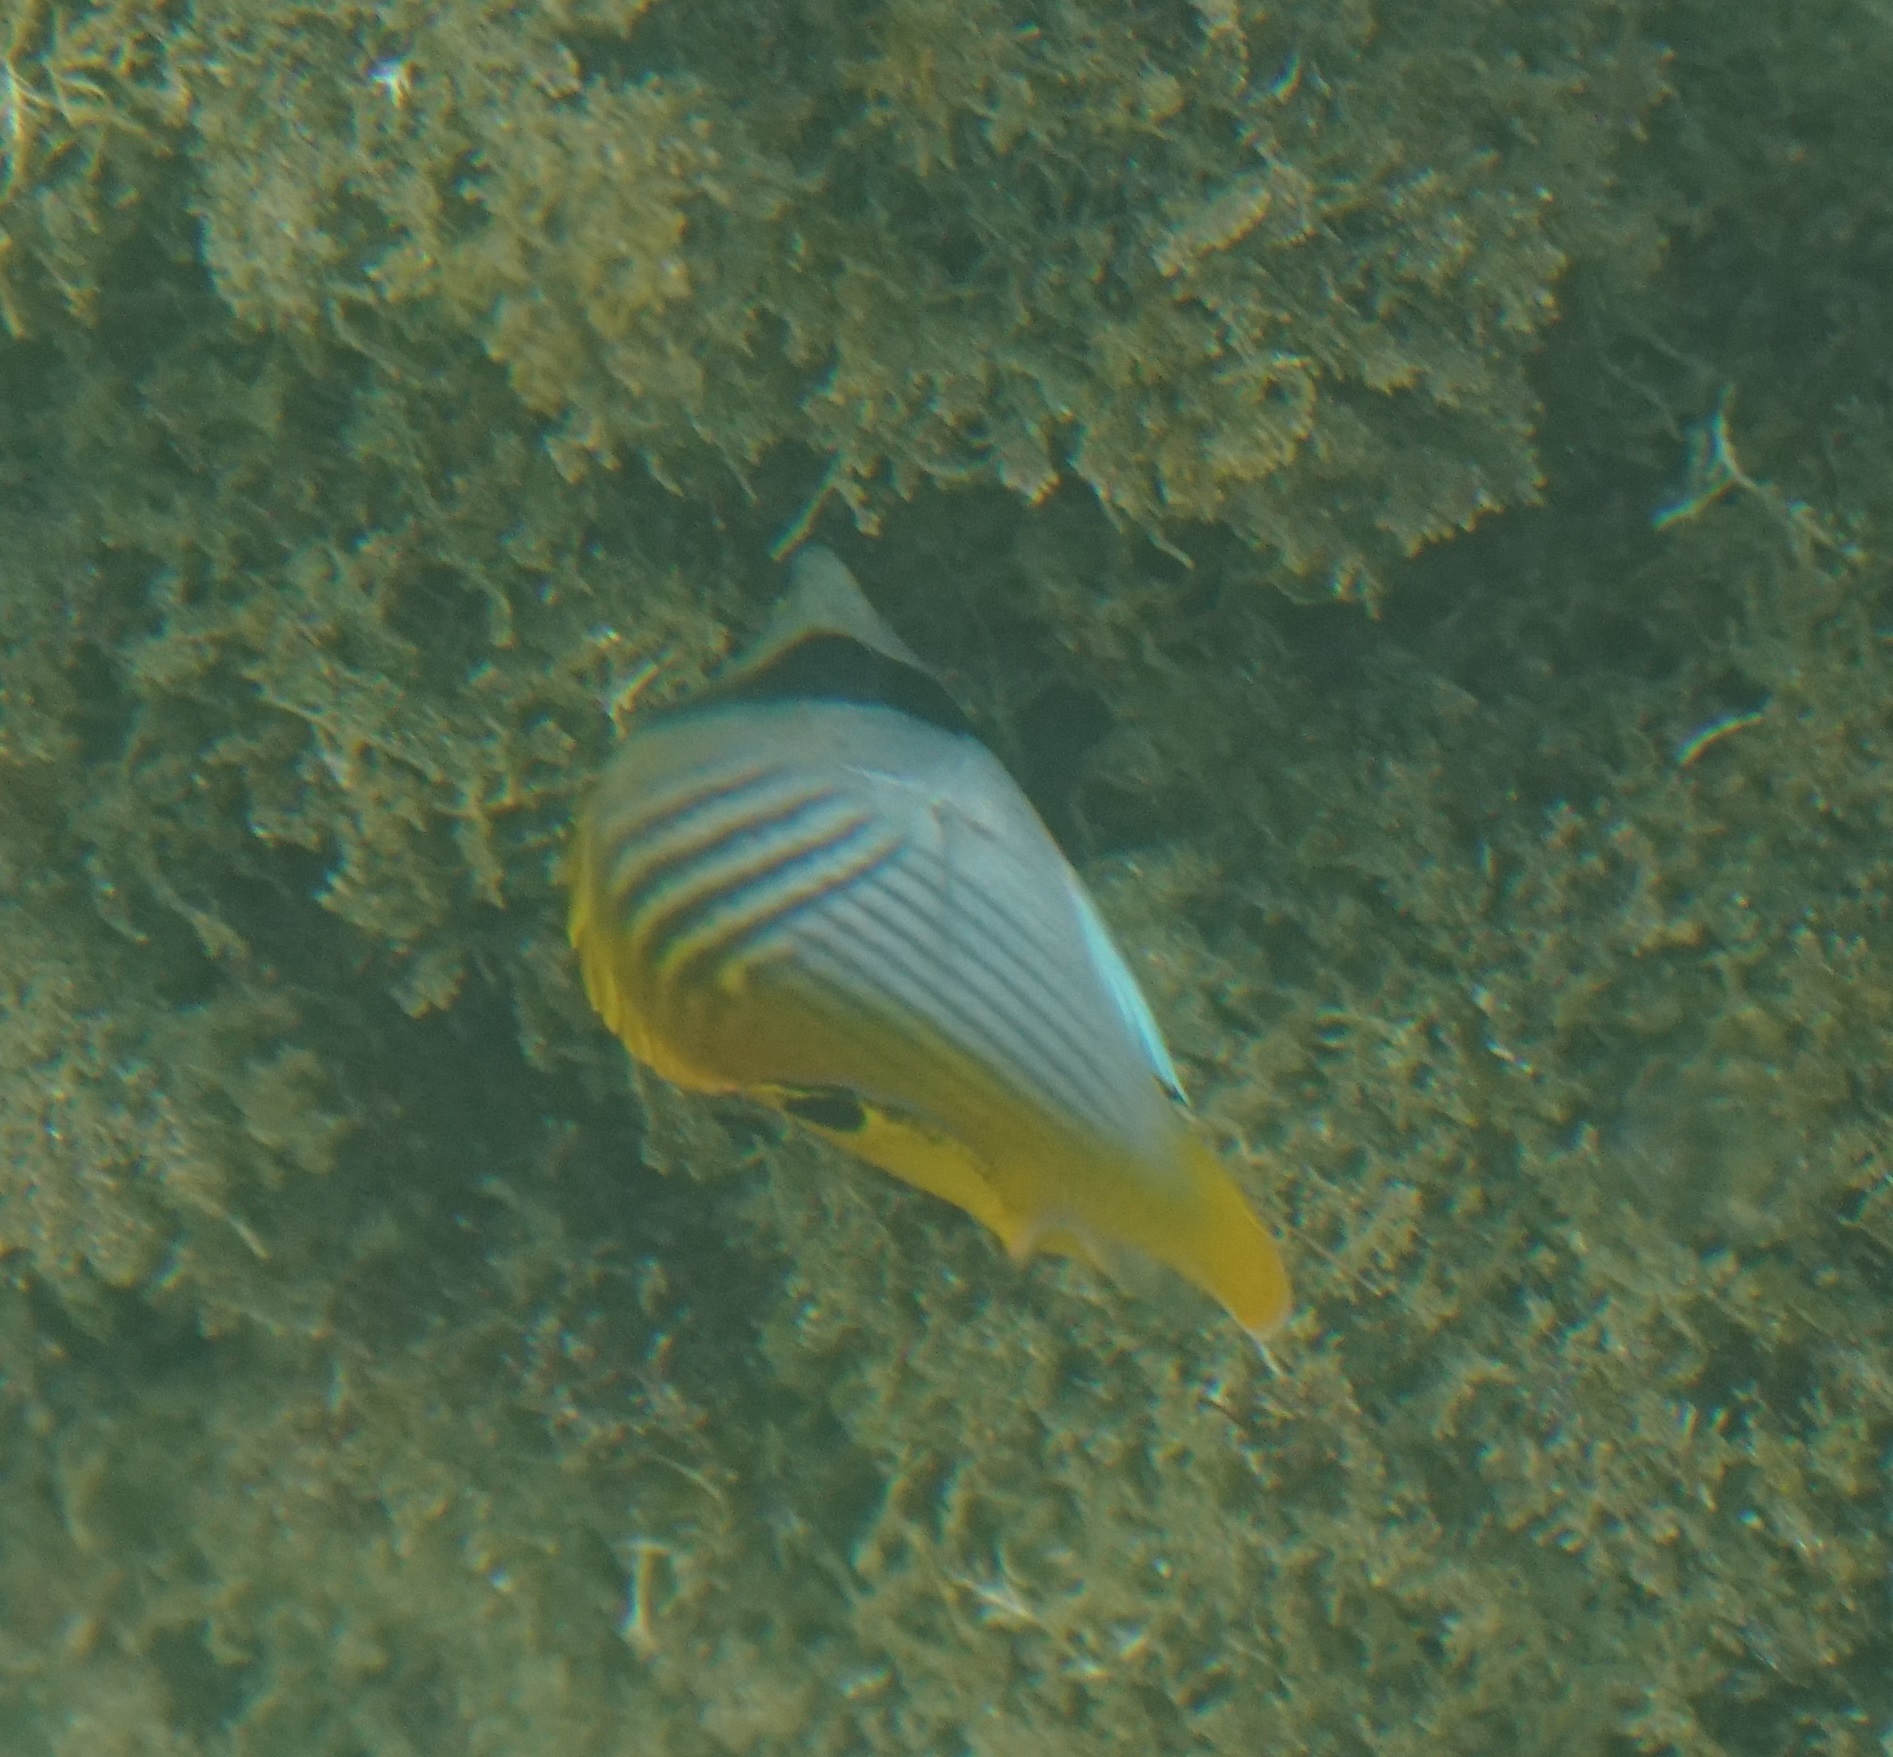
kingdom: Animalia
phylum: Chordata
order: Perciformes
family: Chaetodontidae
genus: Chaetodon
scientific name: Chaetodon auriga
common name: Threadfin butterflyfish
